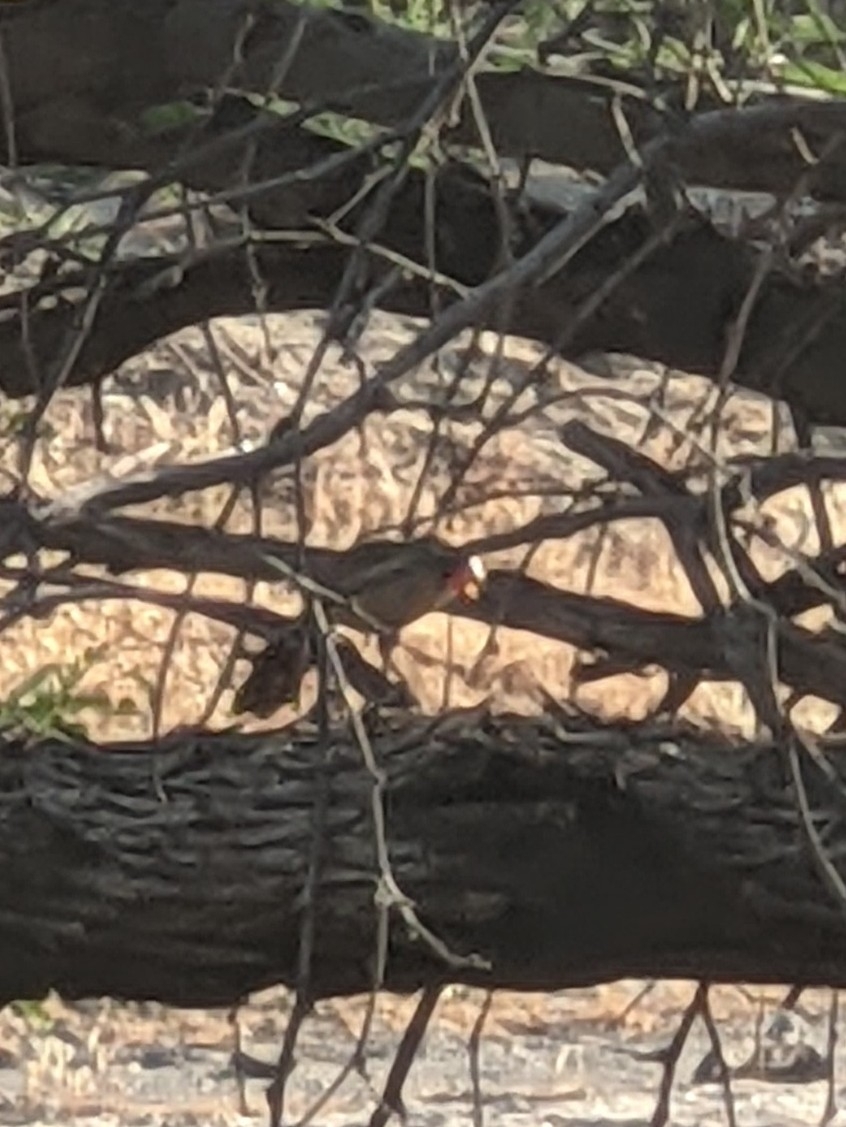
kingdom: Animalia
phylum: Chordata
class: Aves
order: Passeriformes
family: Cardinalidae
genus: Cardinalis
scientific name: Cardinalis cardinalis
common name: Northern cardinal
